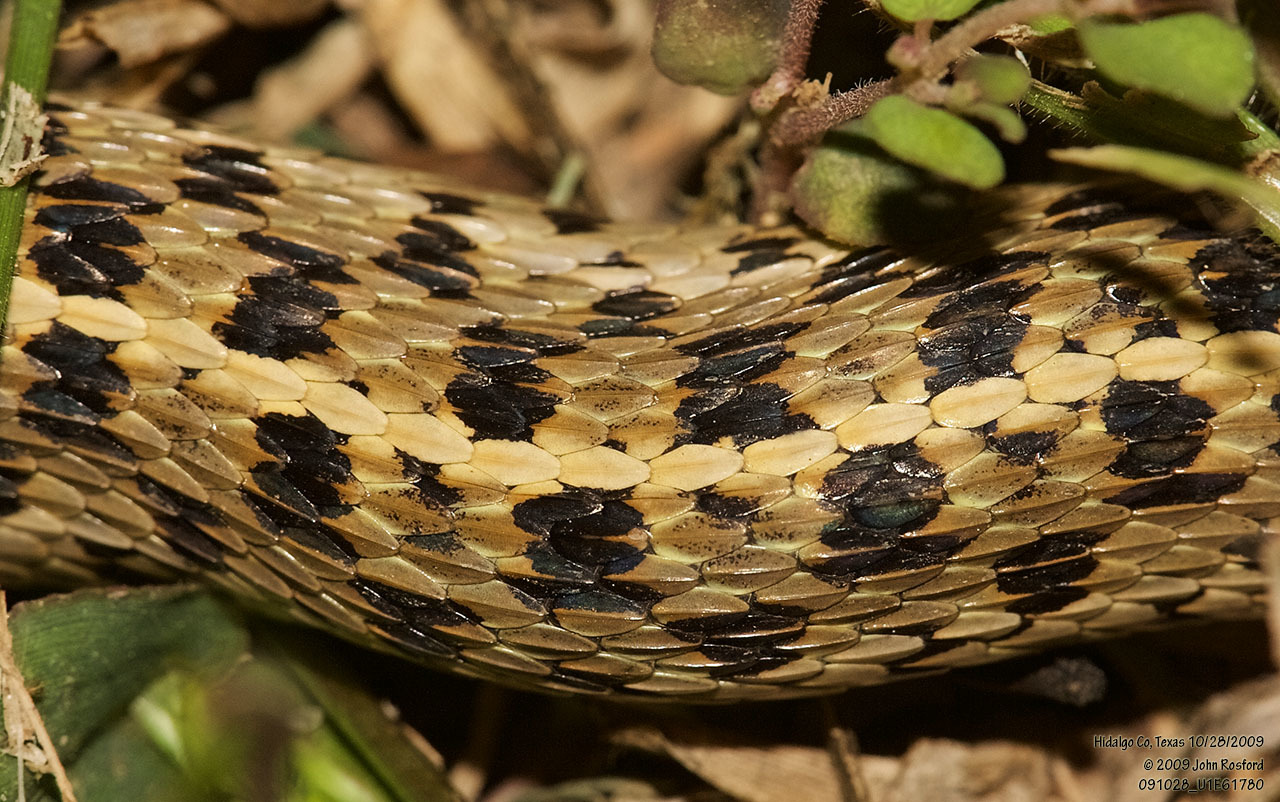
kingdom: Animalia
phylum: Chordata
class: Squamata
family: Colubridae
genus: Thamnophis
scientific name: Thamnophis marcianus
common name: Checkered garter snake
